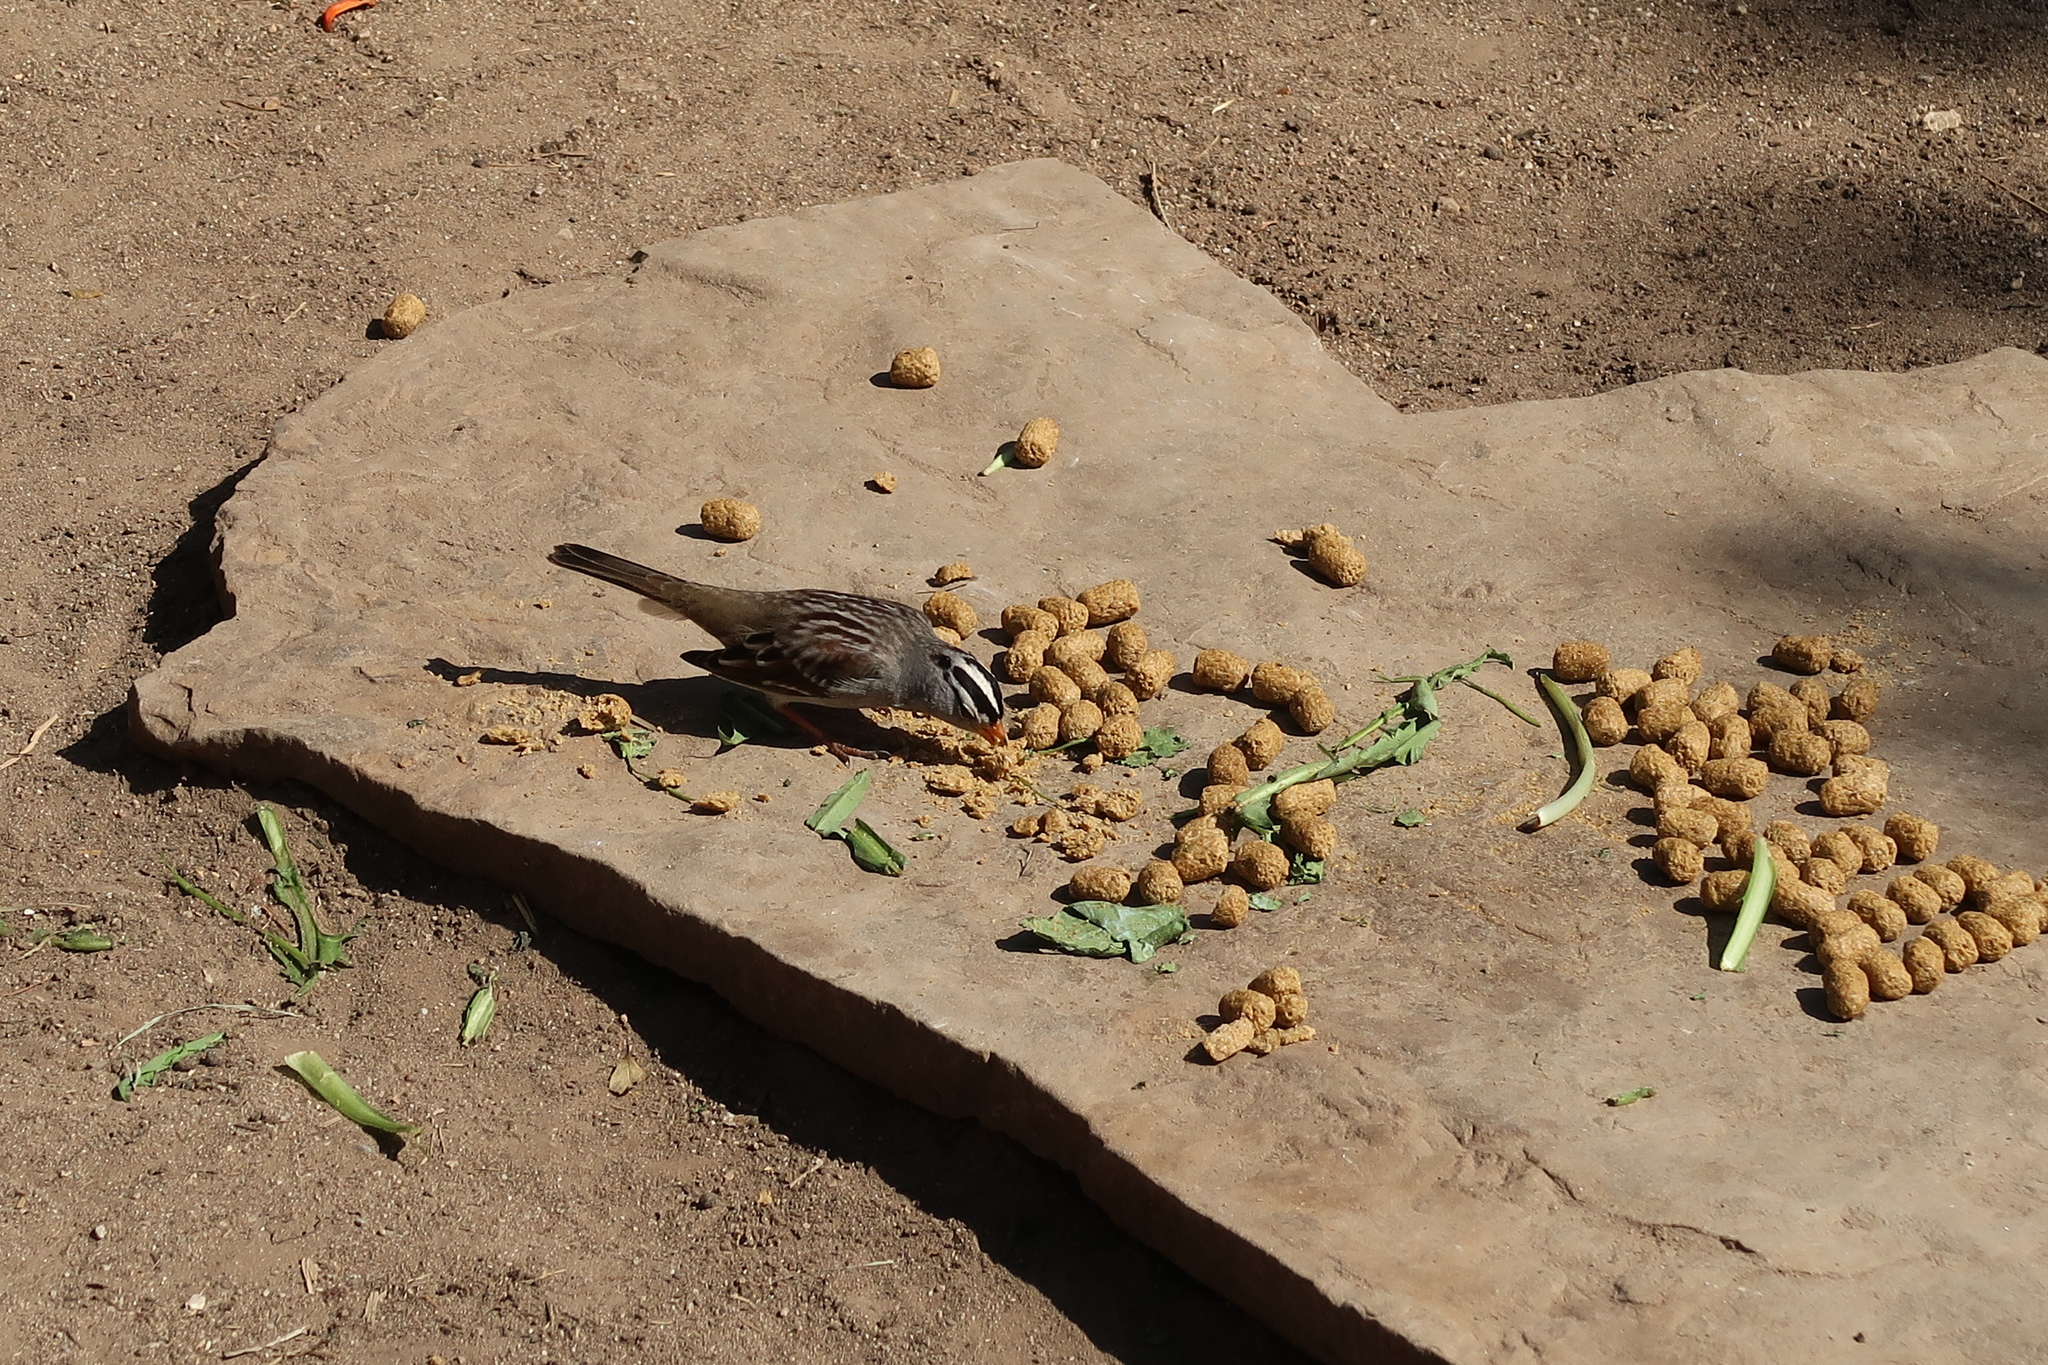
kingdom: Animalia
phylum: Chordata
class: Aves
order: Passeriformes
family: Passerellidae
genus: Zonotrichia
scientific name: Zonotrichia leucophrys
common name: White-crowned sparrow
